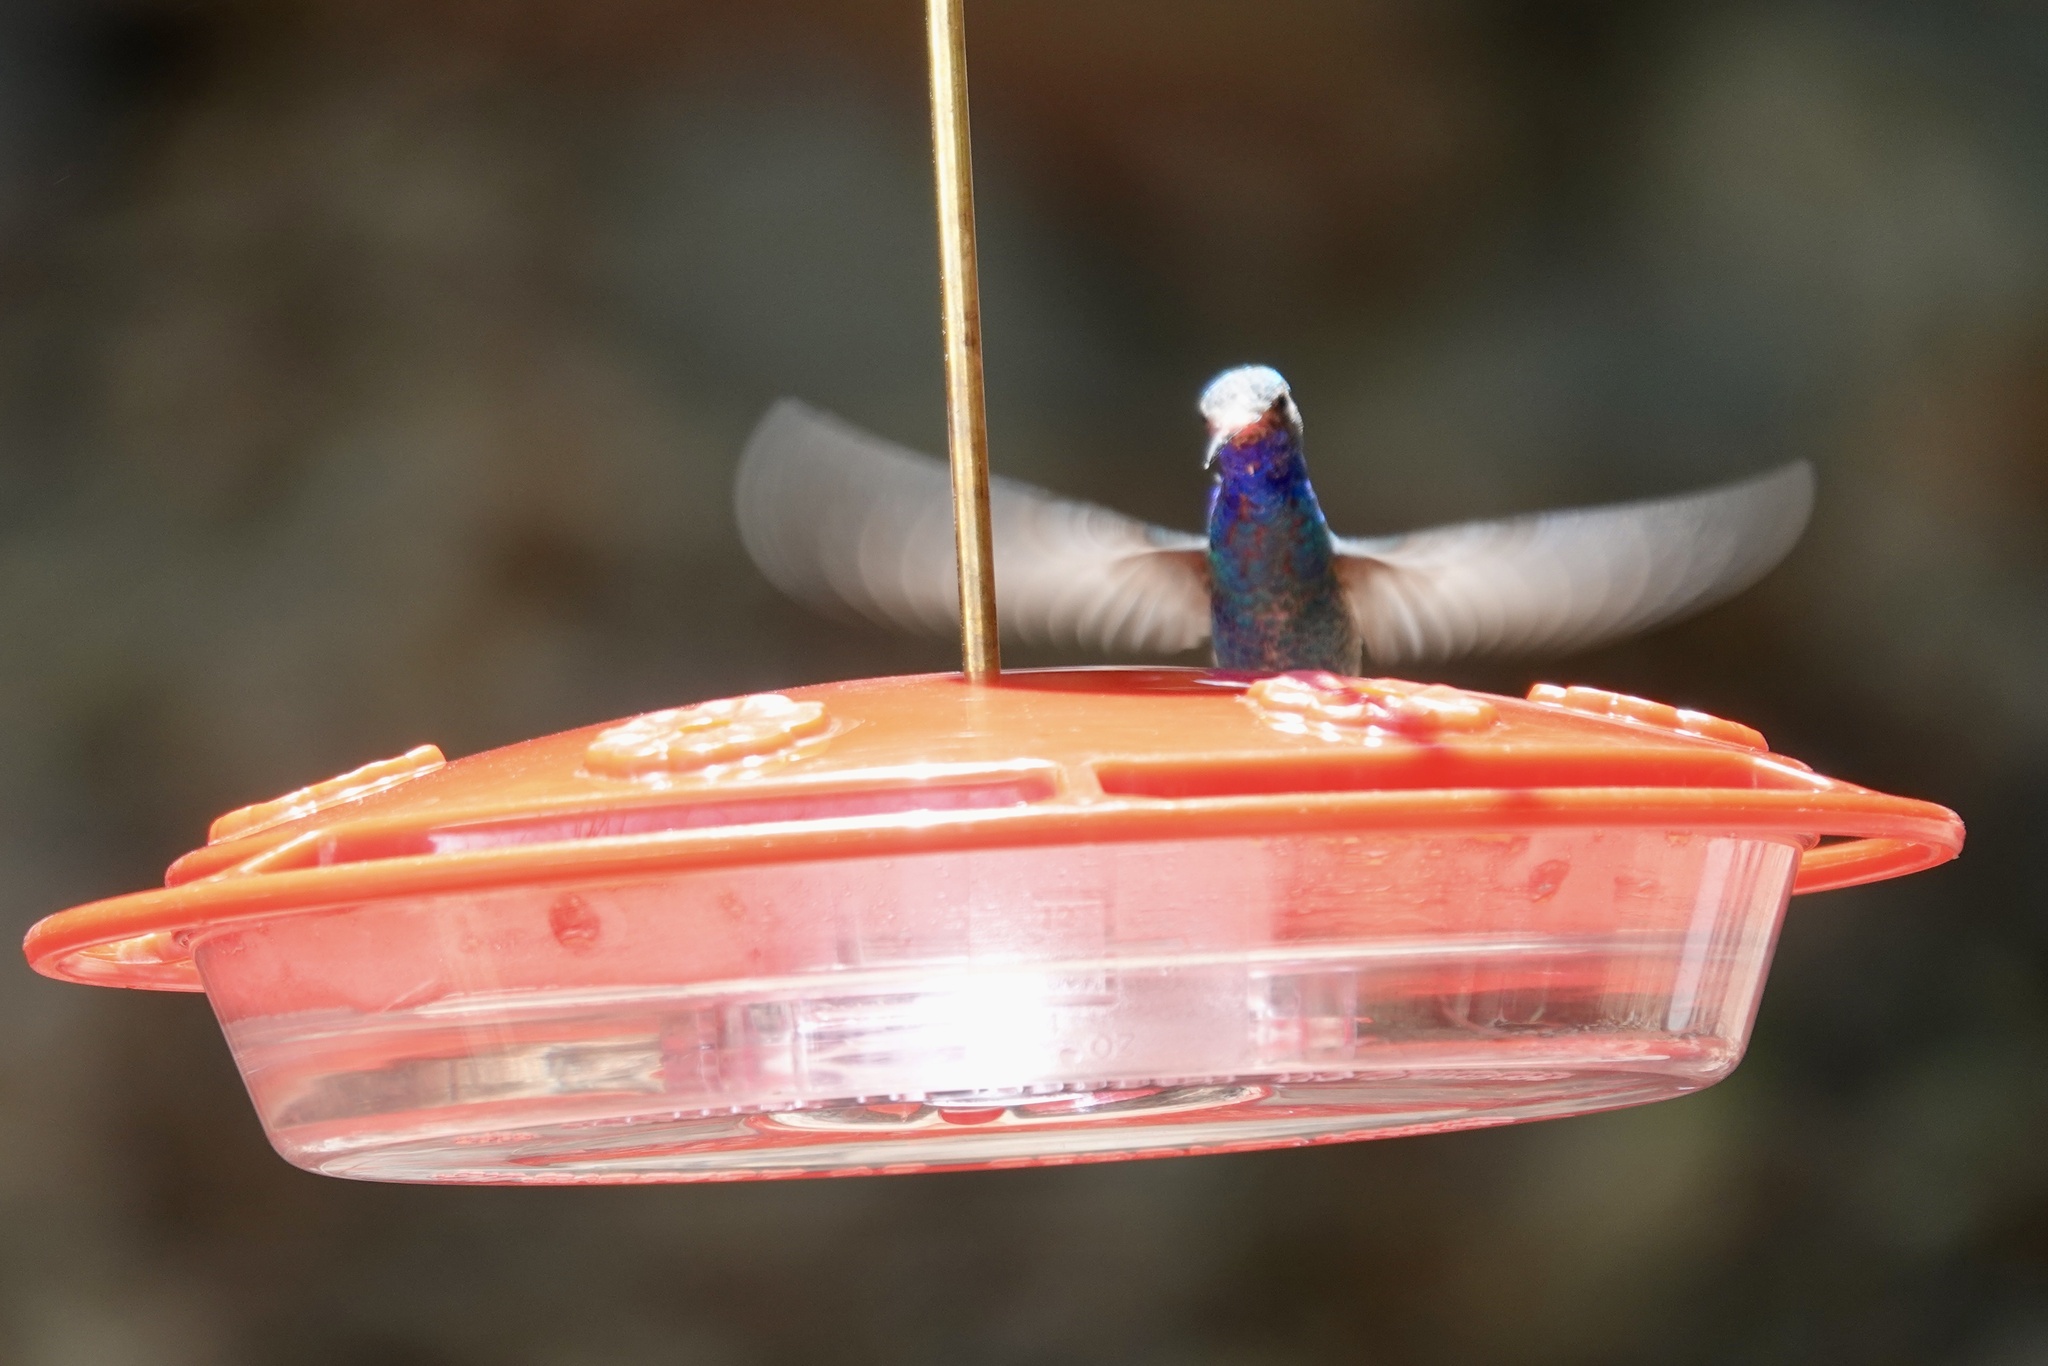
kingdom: Animalia
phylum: Chordata
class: Aves
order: Apodiformes
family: Trochilidae
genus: Cynanthus
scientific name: Cynanthus latirostris
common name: Broad-billed hummingbird
